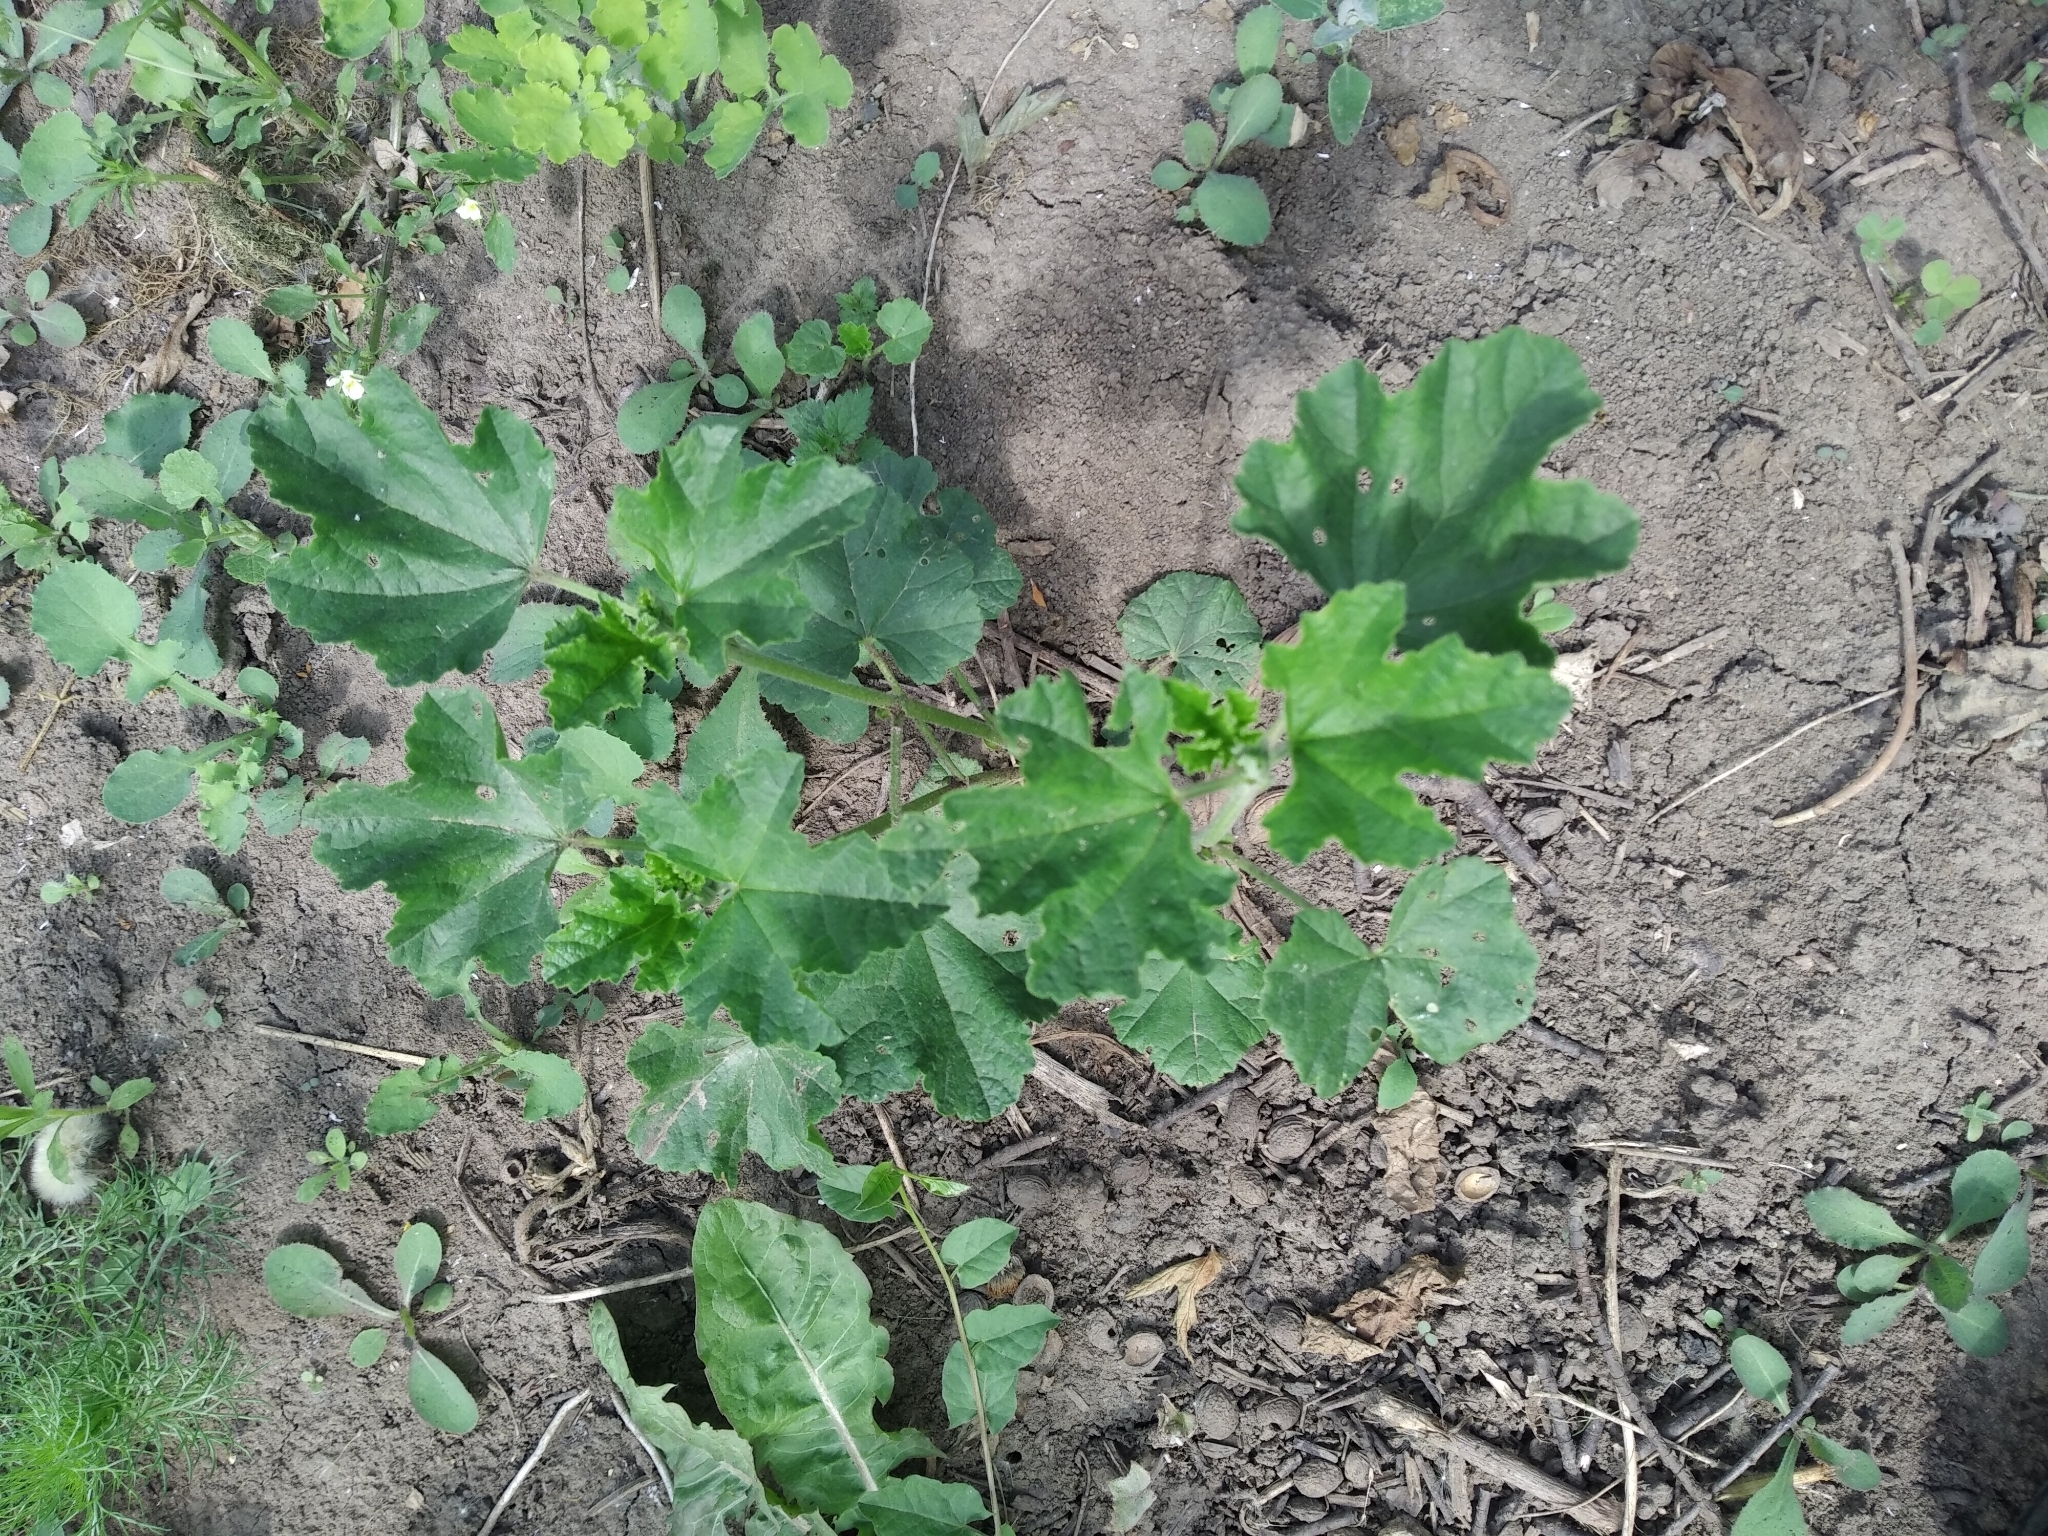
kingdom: Plantae
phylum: Tracheophyta
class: Magnoliopsida
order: Malvales
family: Malvaceae
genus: Malva
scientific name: Malva thuringiaca
